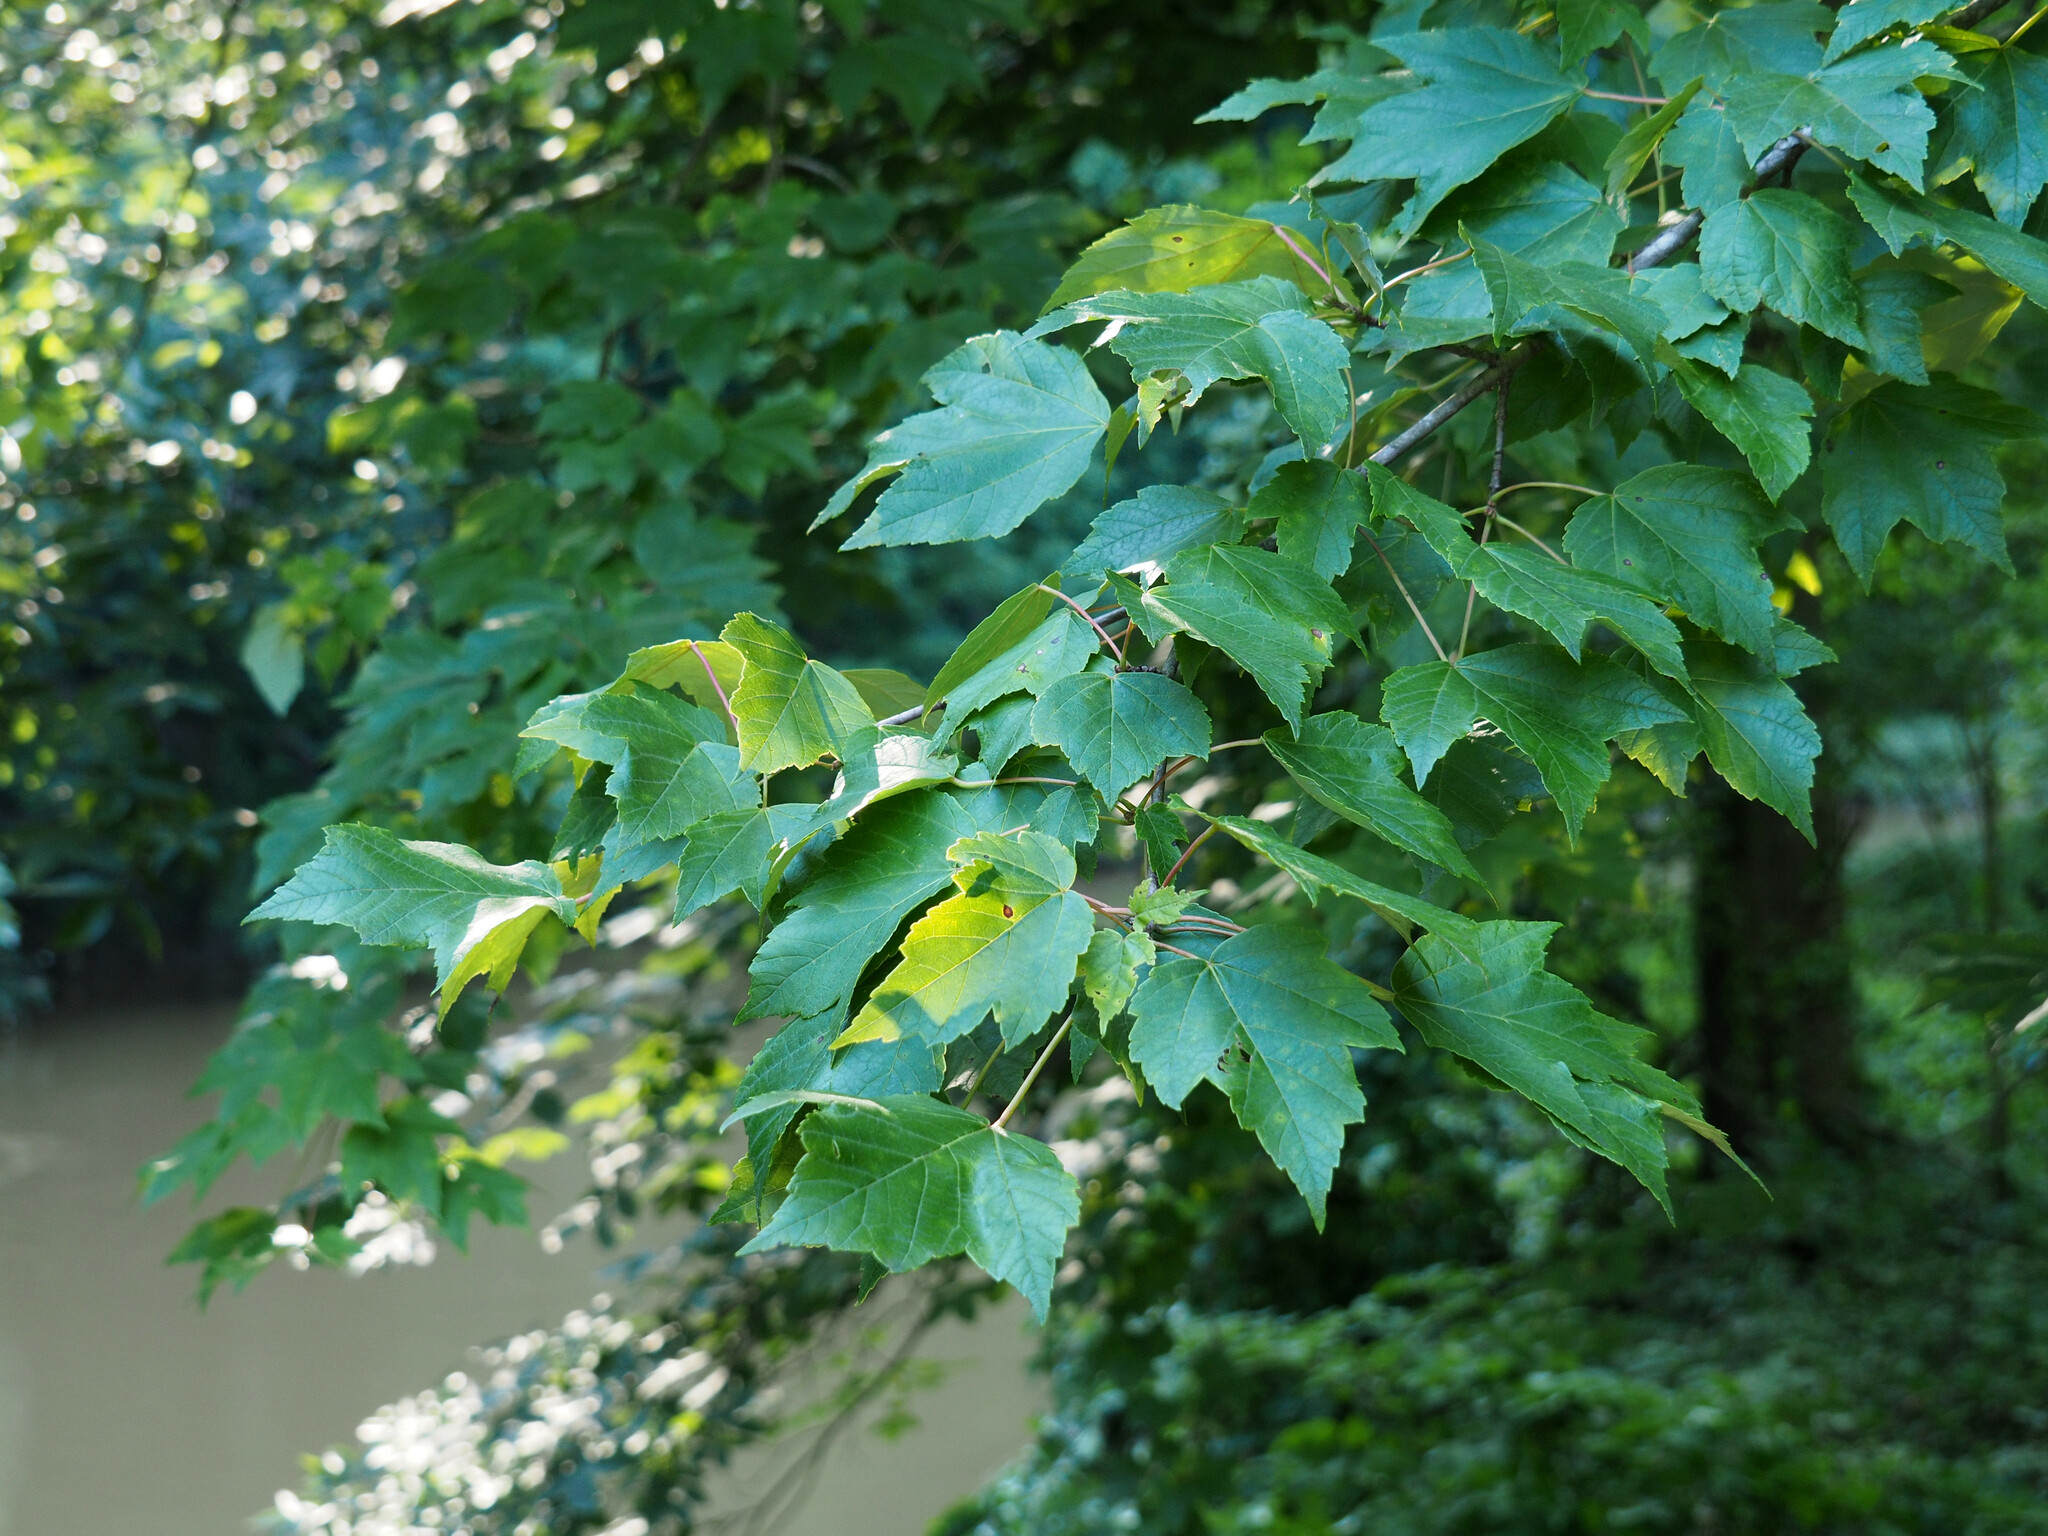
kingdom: Plantae
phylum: Tracheophyta
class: Magnoliopsida
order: Sapindales
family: Sapindaceae
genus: Acer
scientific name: Acer rubrum
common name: Red maple
